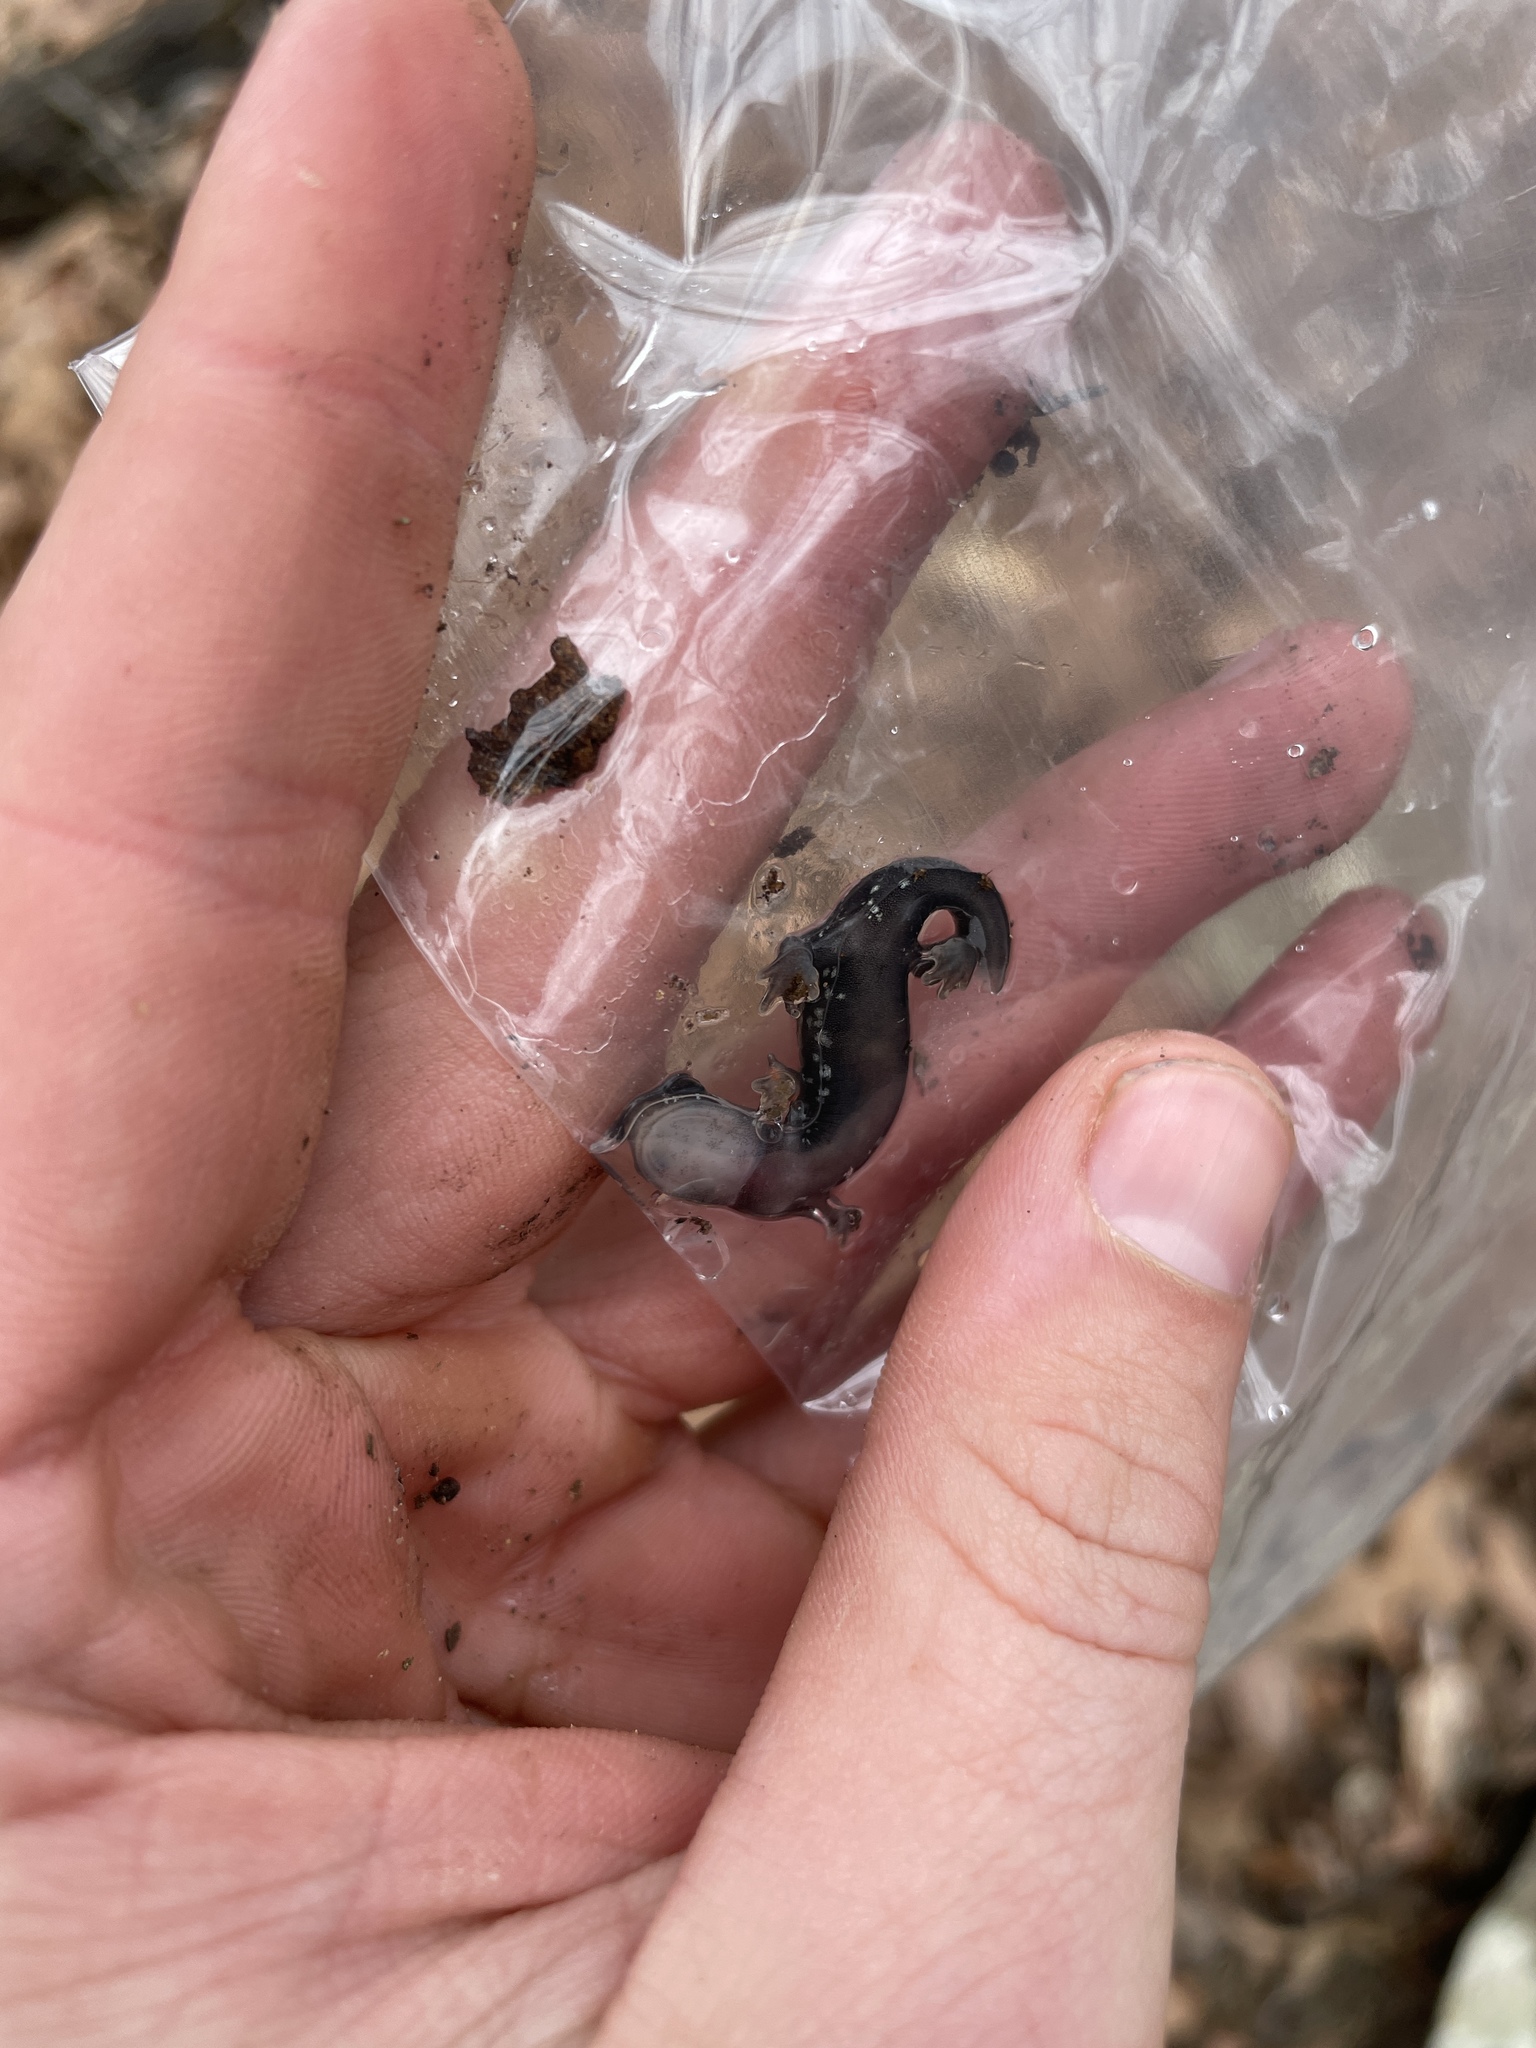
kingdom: Animalia
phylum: Chordata
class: Amphibia
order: Caudata
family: Plethodontidae
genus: Plethodon
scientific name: Plethodon ouachitae
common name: Rich mountain salamander
